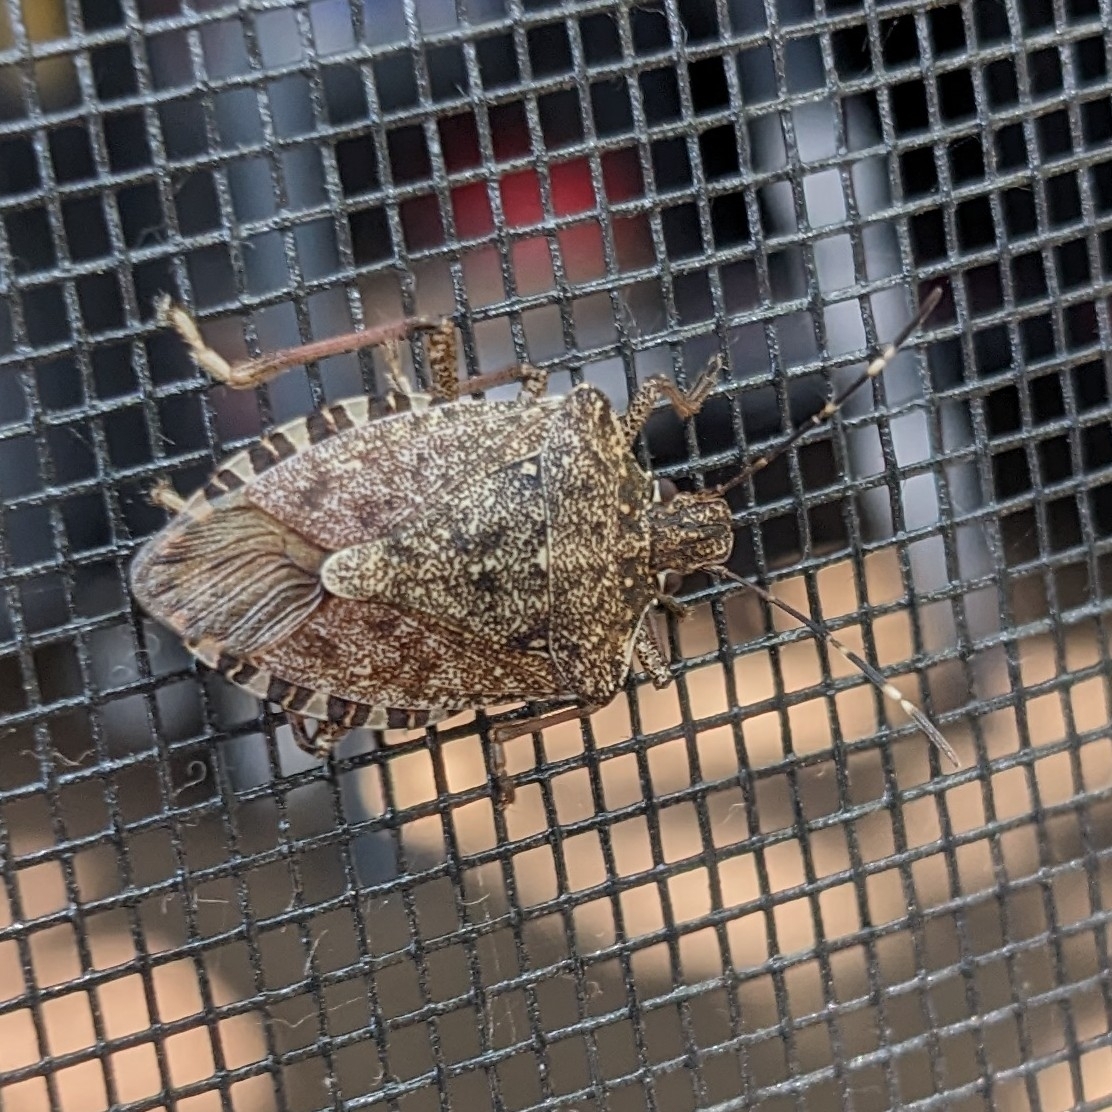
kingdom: Animalia
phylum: Arthropoda
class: Insecta
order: Hemiptera
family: Pentatomidae
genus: Halyomorpha
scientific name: Halyomorpha halys
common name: Brown marmorated stink bug
